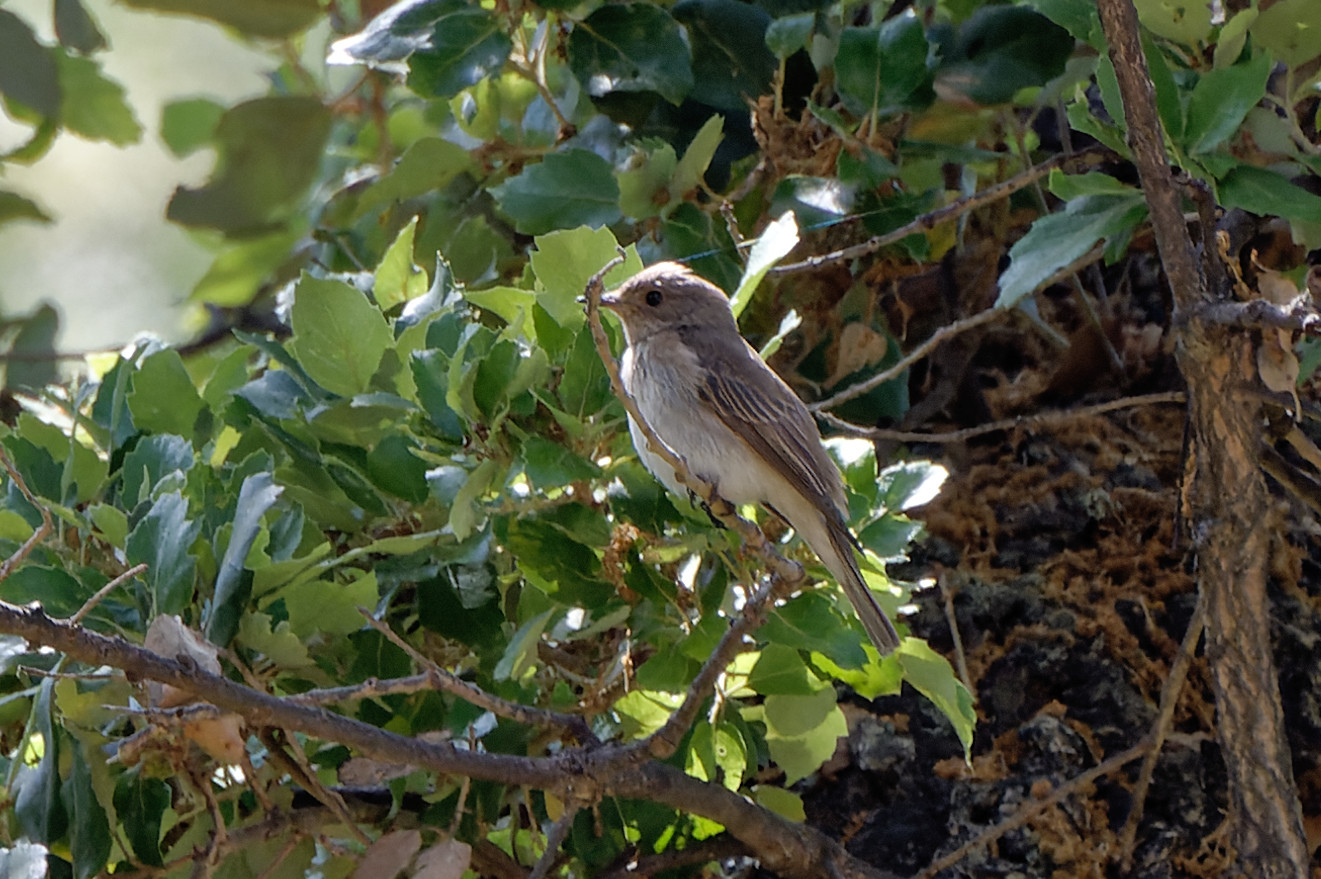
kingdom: Animalia
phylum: Chordata
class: Aves
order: Passeriformes
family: Muscicapidae
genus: Muscicapa
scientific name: Muscicapa striata
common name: Spotted flycatcher
